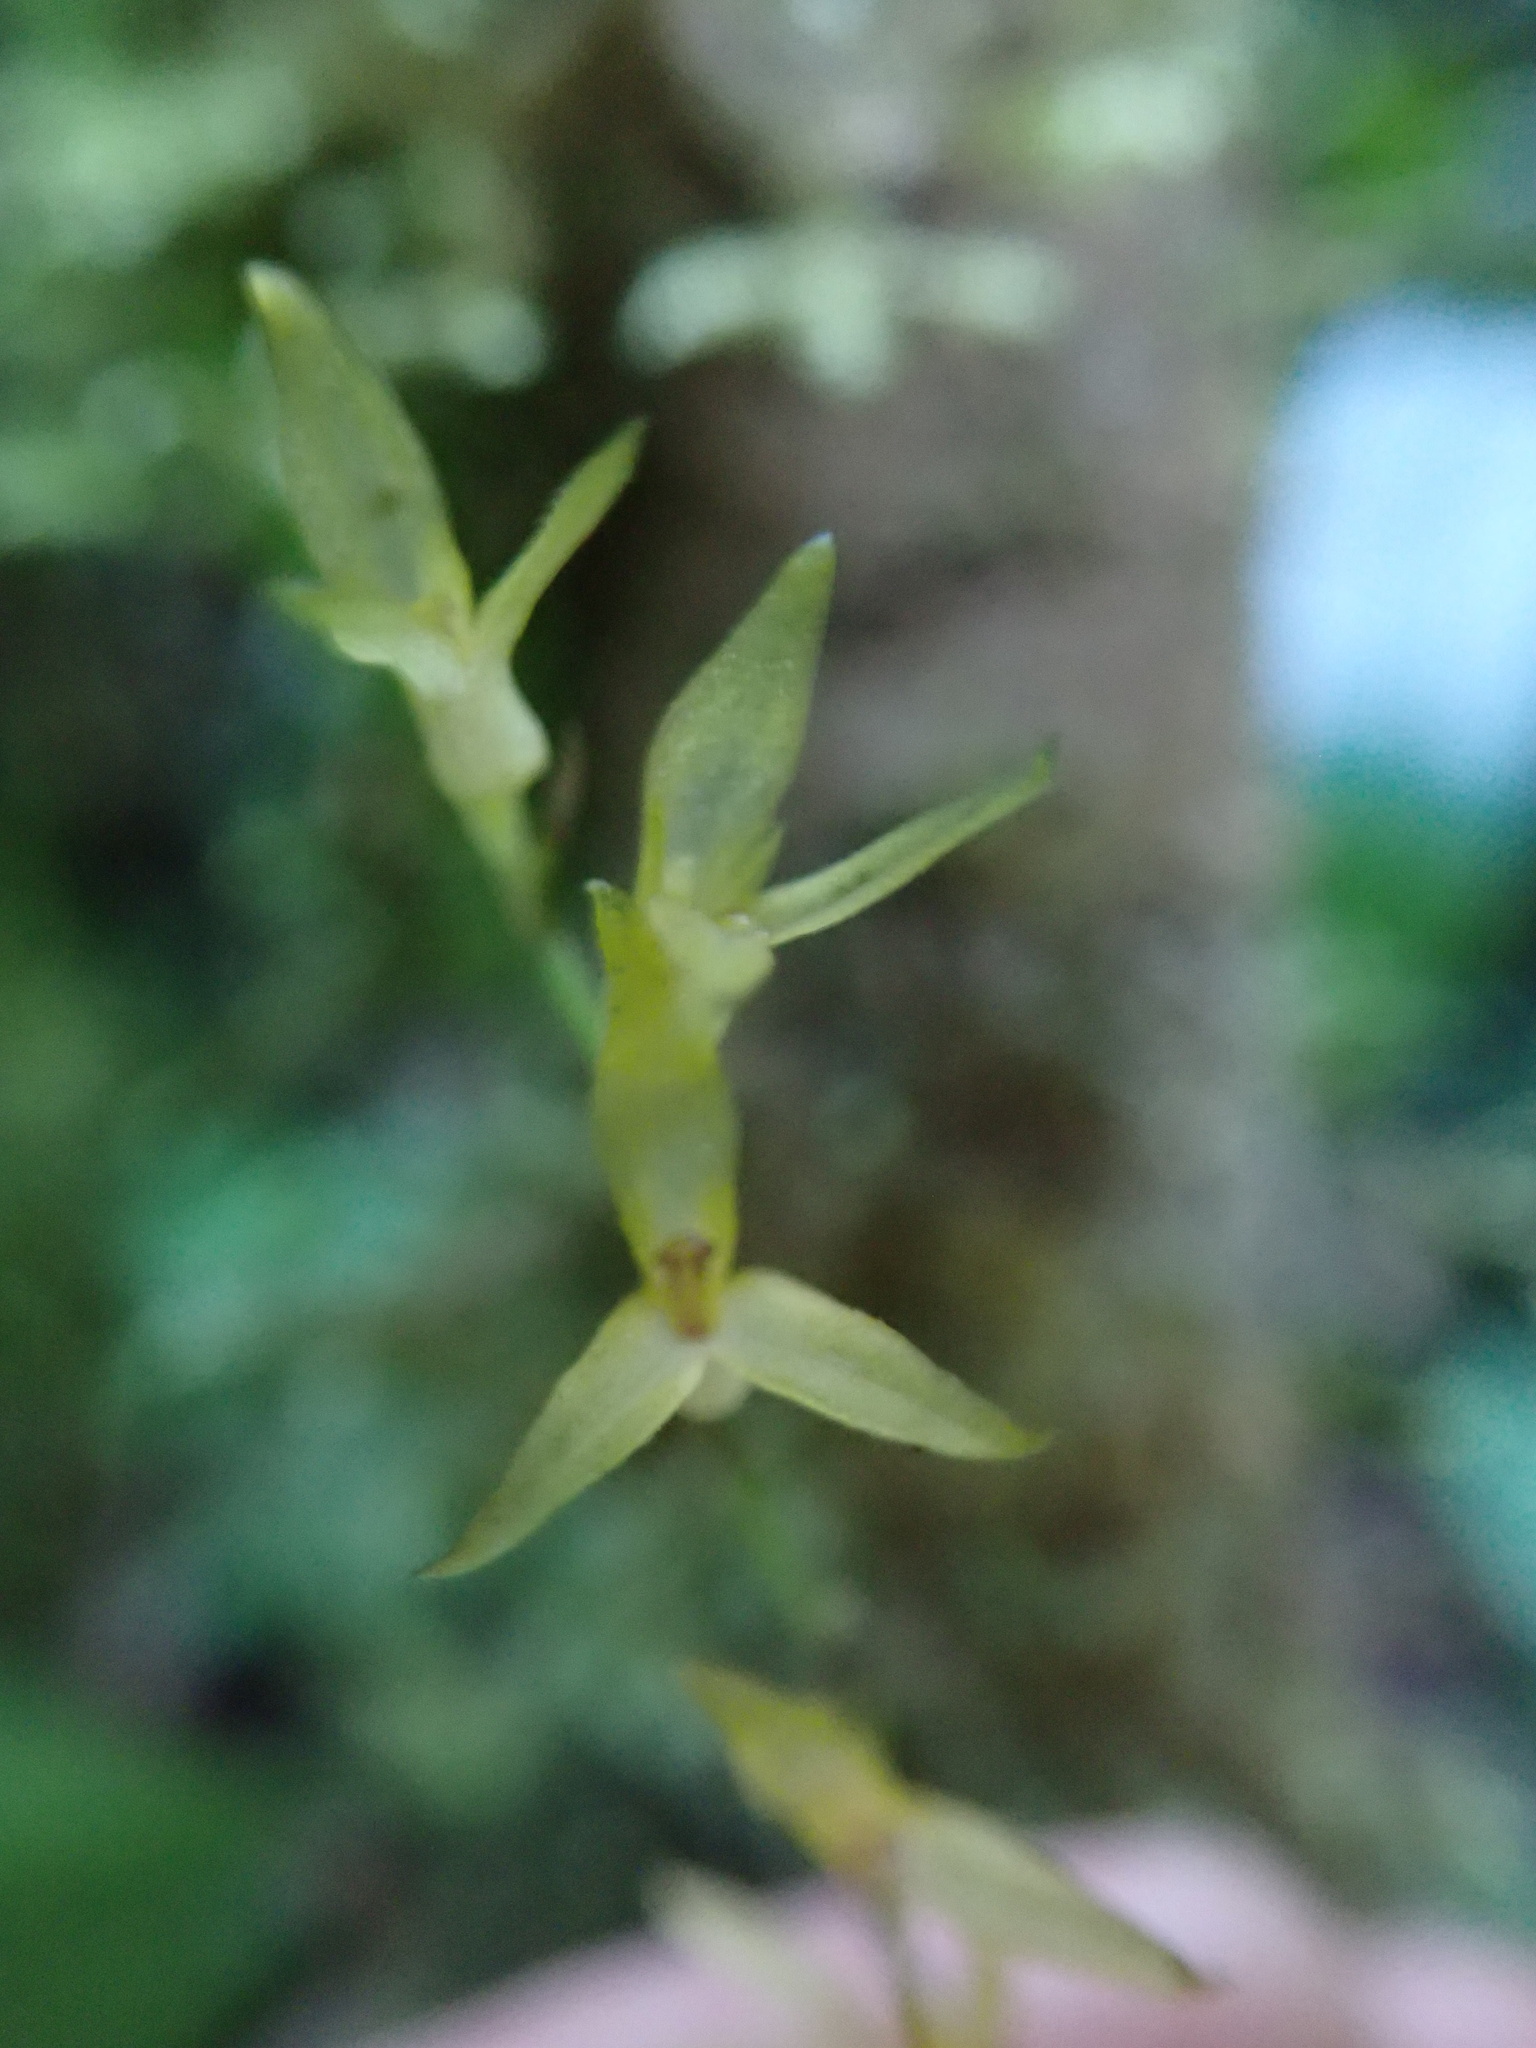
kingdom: Plantae
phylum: Tracheophyta
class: Liliopsida
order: Asparagales
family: Orchidaceae
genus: Stelis
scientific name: Stelis platystylis
